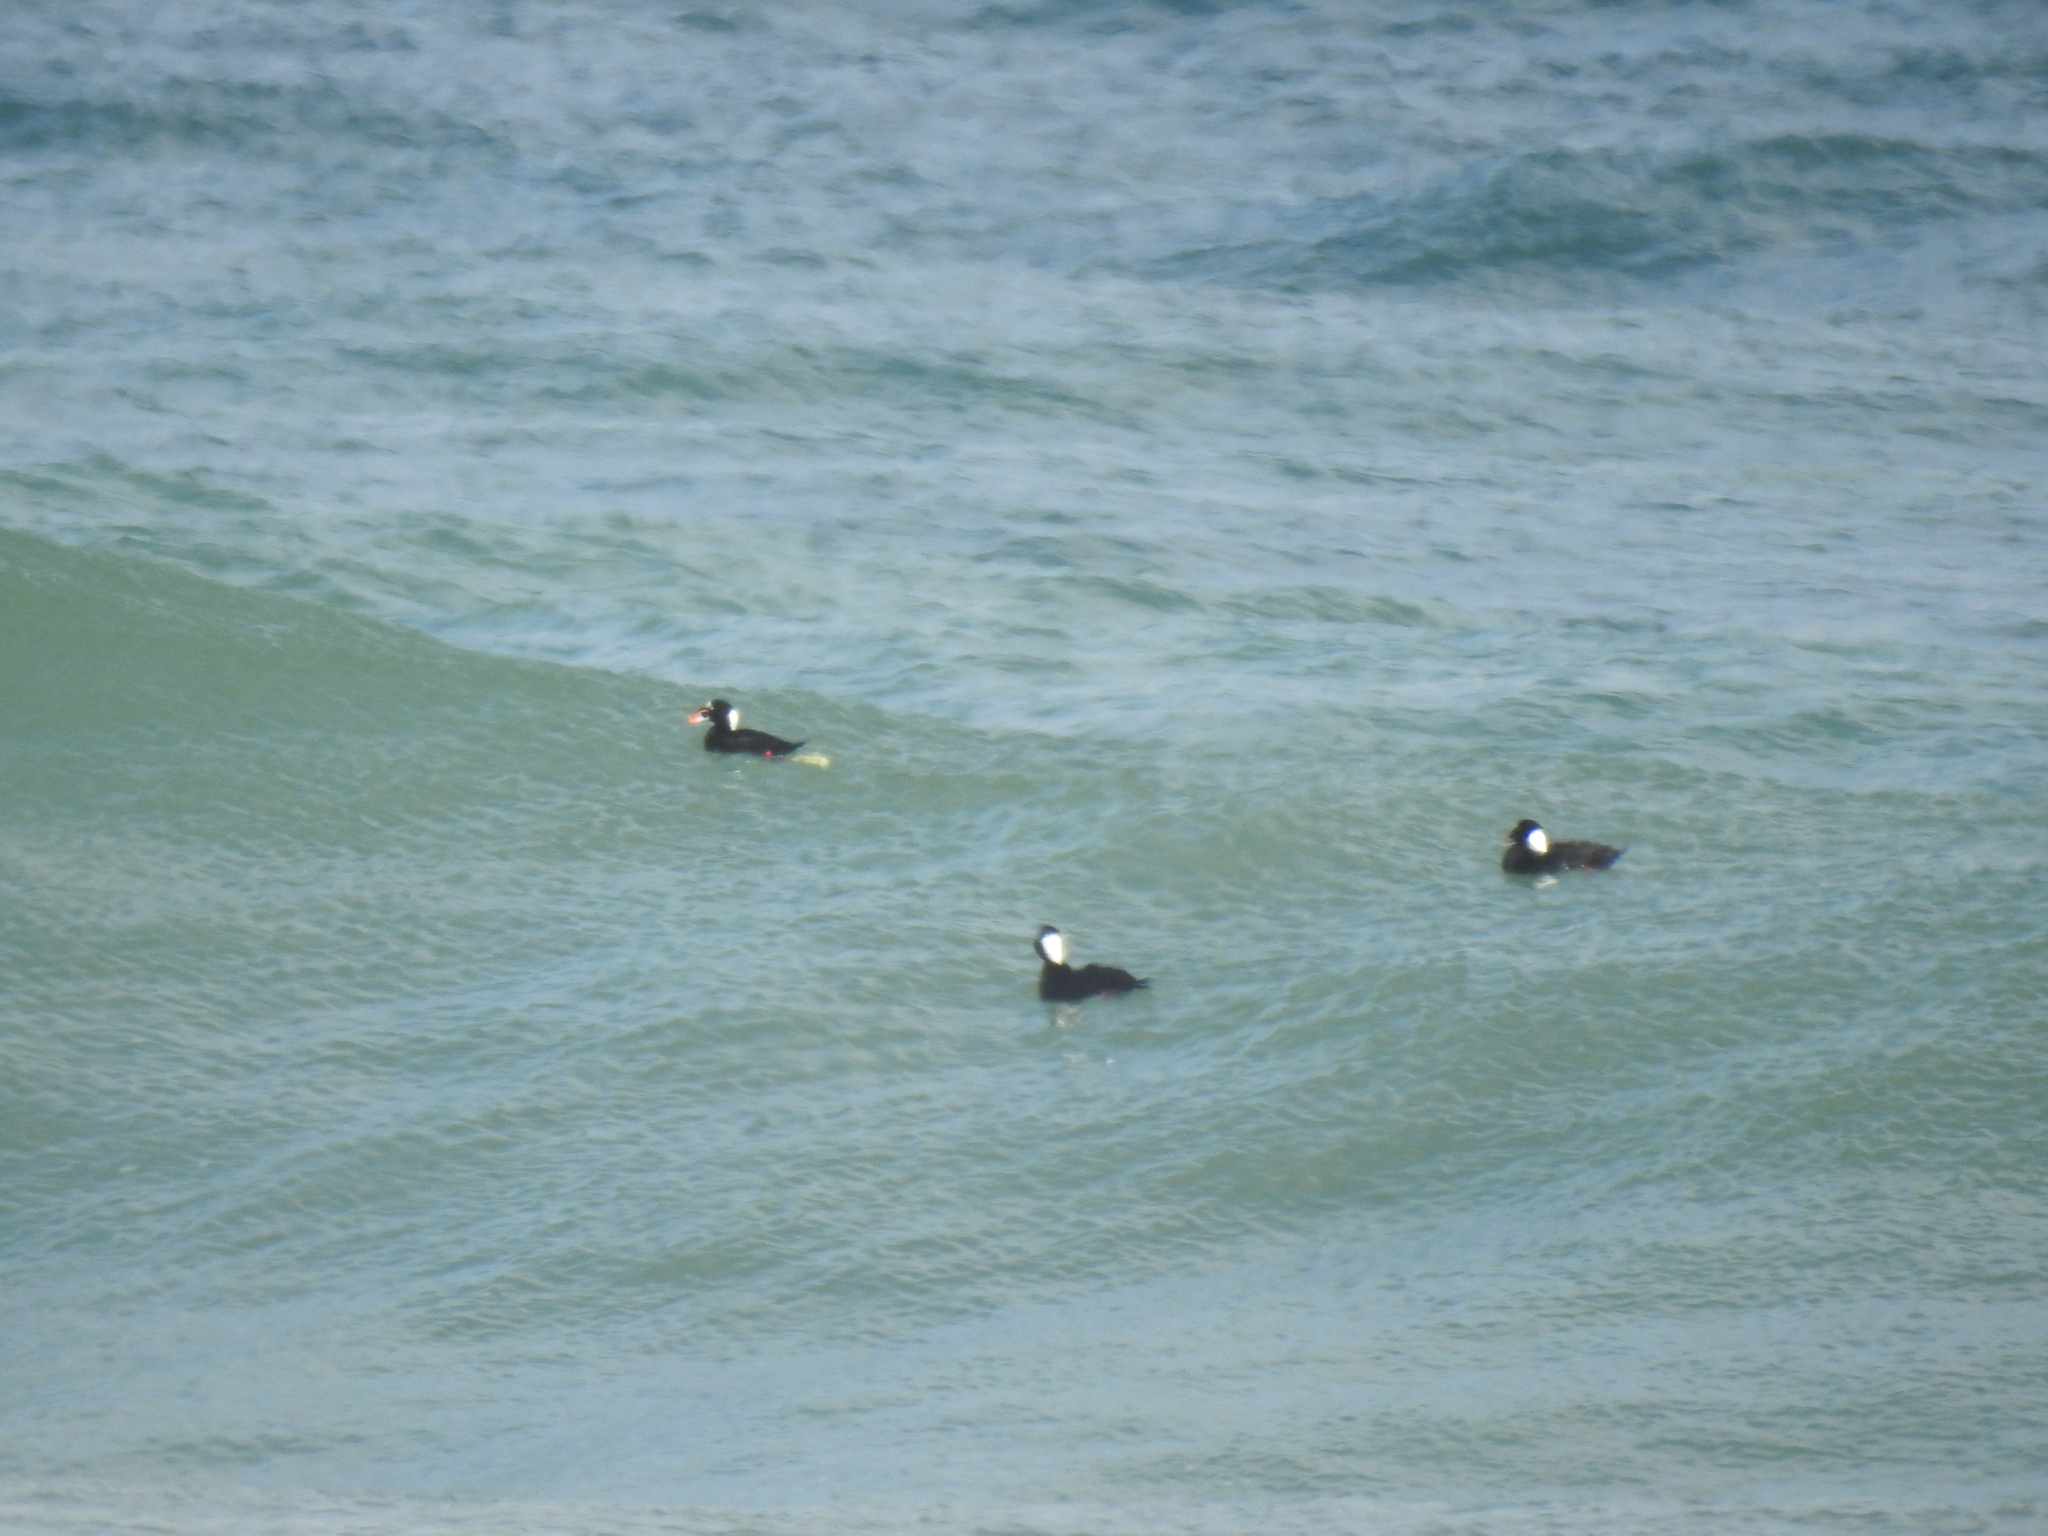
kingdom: Animalia
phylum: Chordata
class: Aves
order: Anseriformes
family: Anatidae
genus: Melanitta
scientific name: Melanitta perspicillata
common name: Surf scoter
